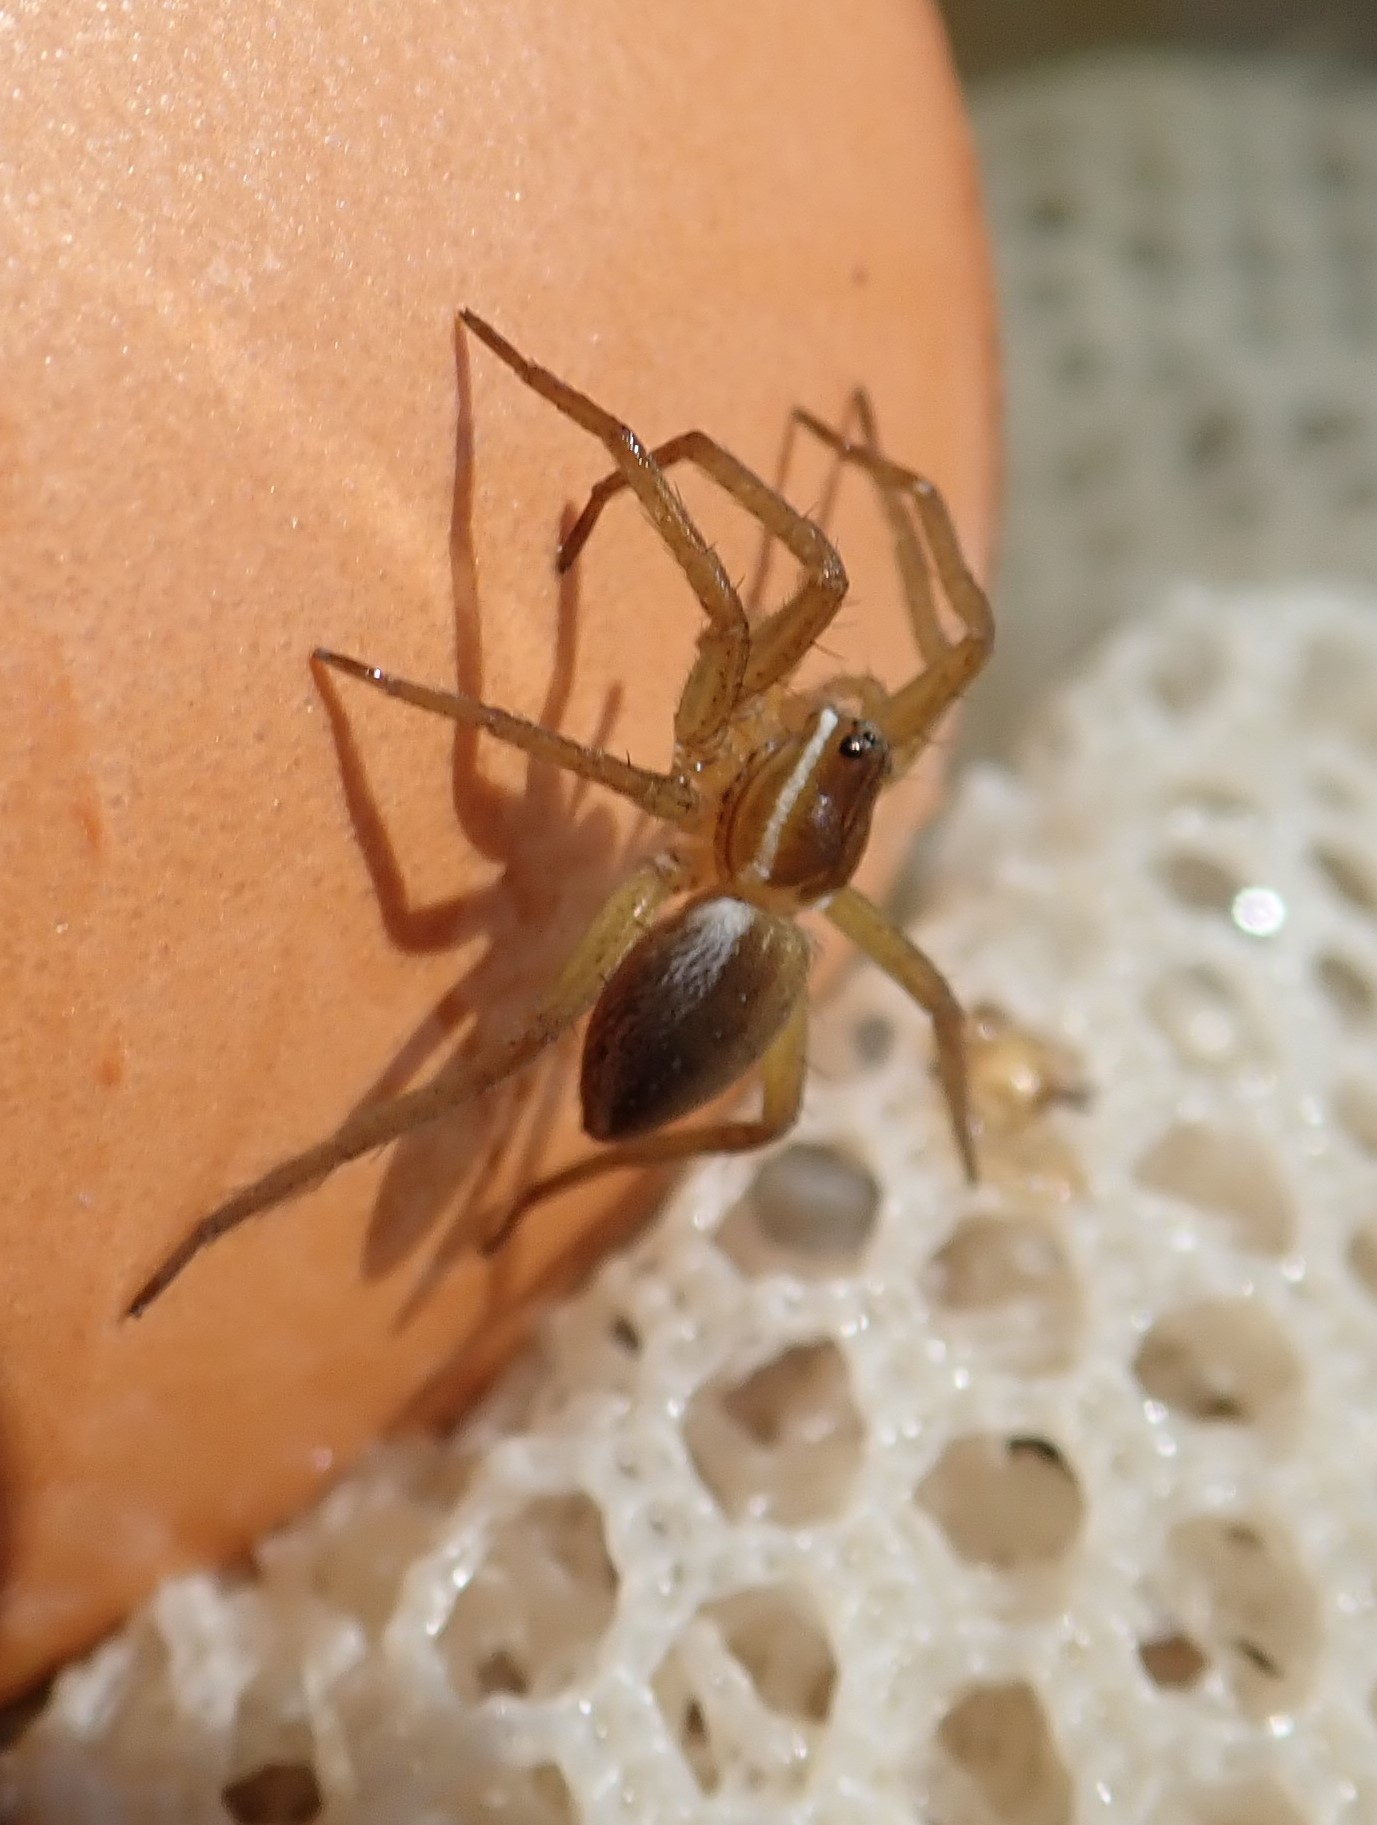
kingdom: Animalia
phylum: Arthropoda
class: Arachnida
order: Araneae
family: Pisauridae
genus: Dolomedes
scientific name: Dolomedes triton
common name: Six-spotted fishing spider
